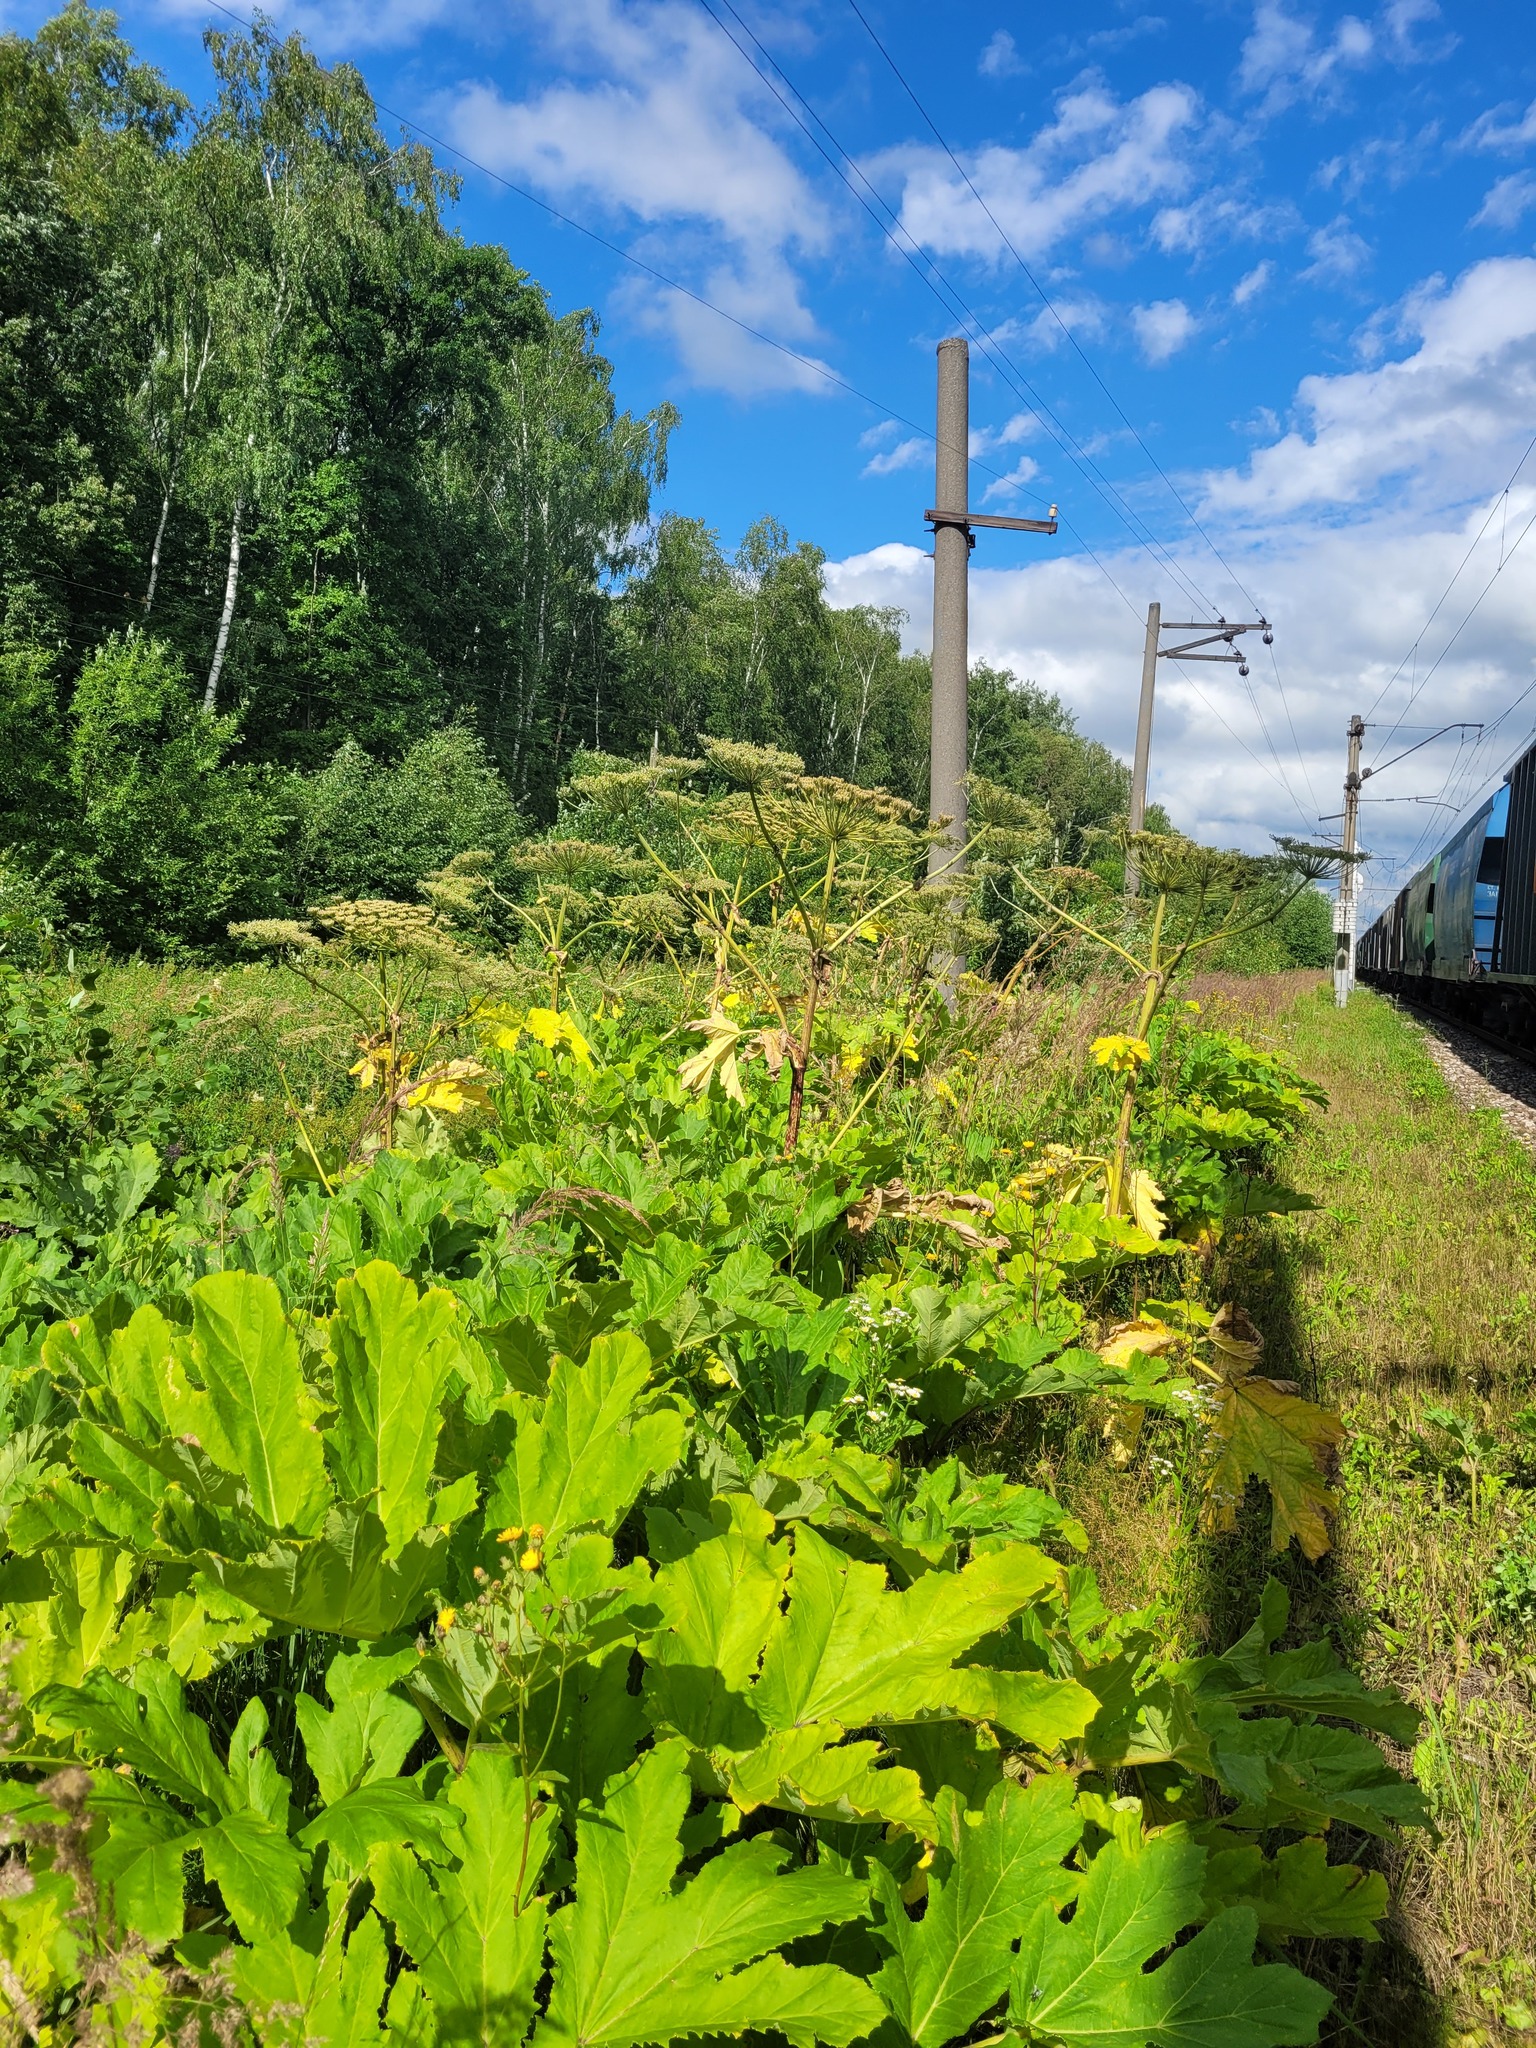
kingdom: Plantae
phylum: Tracheophyta
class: Magnoliopsida
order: Apiales
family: Apiaceae
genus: Heracleum
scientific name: Heracleum sosnowskyi
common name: Sosnowsky's hogweed
